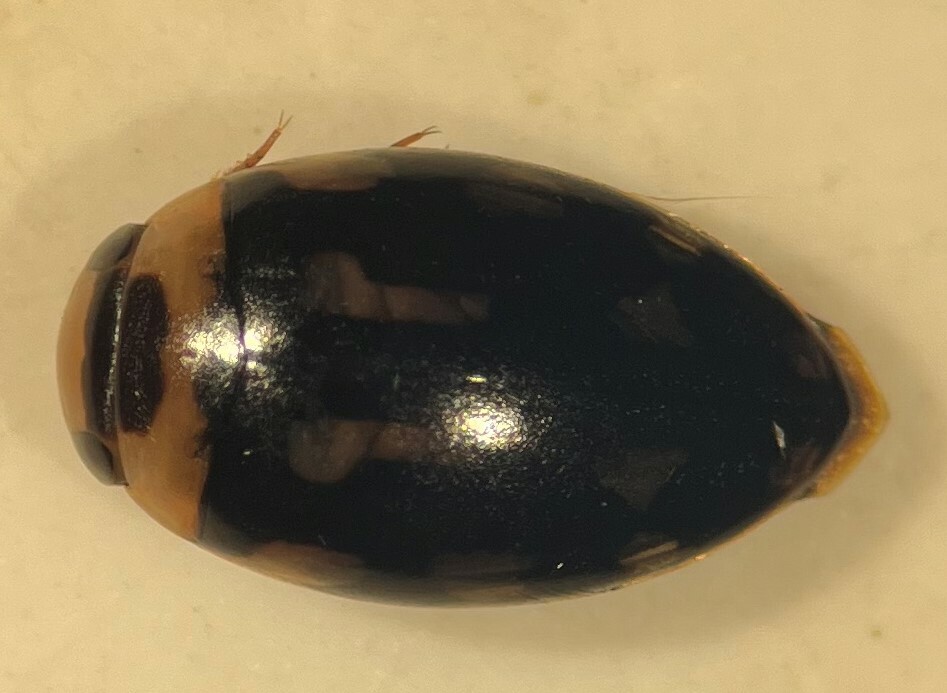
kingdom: Animalia
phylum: Arthropoda
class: Insecta
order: Coleoptera
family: Dytiscidae
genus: Laccophilus
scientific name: Laccophilus horni
